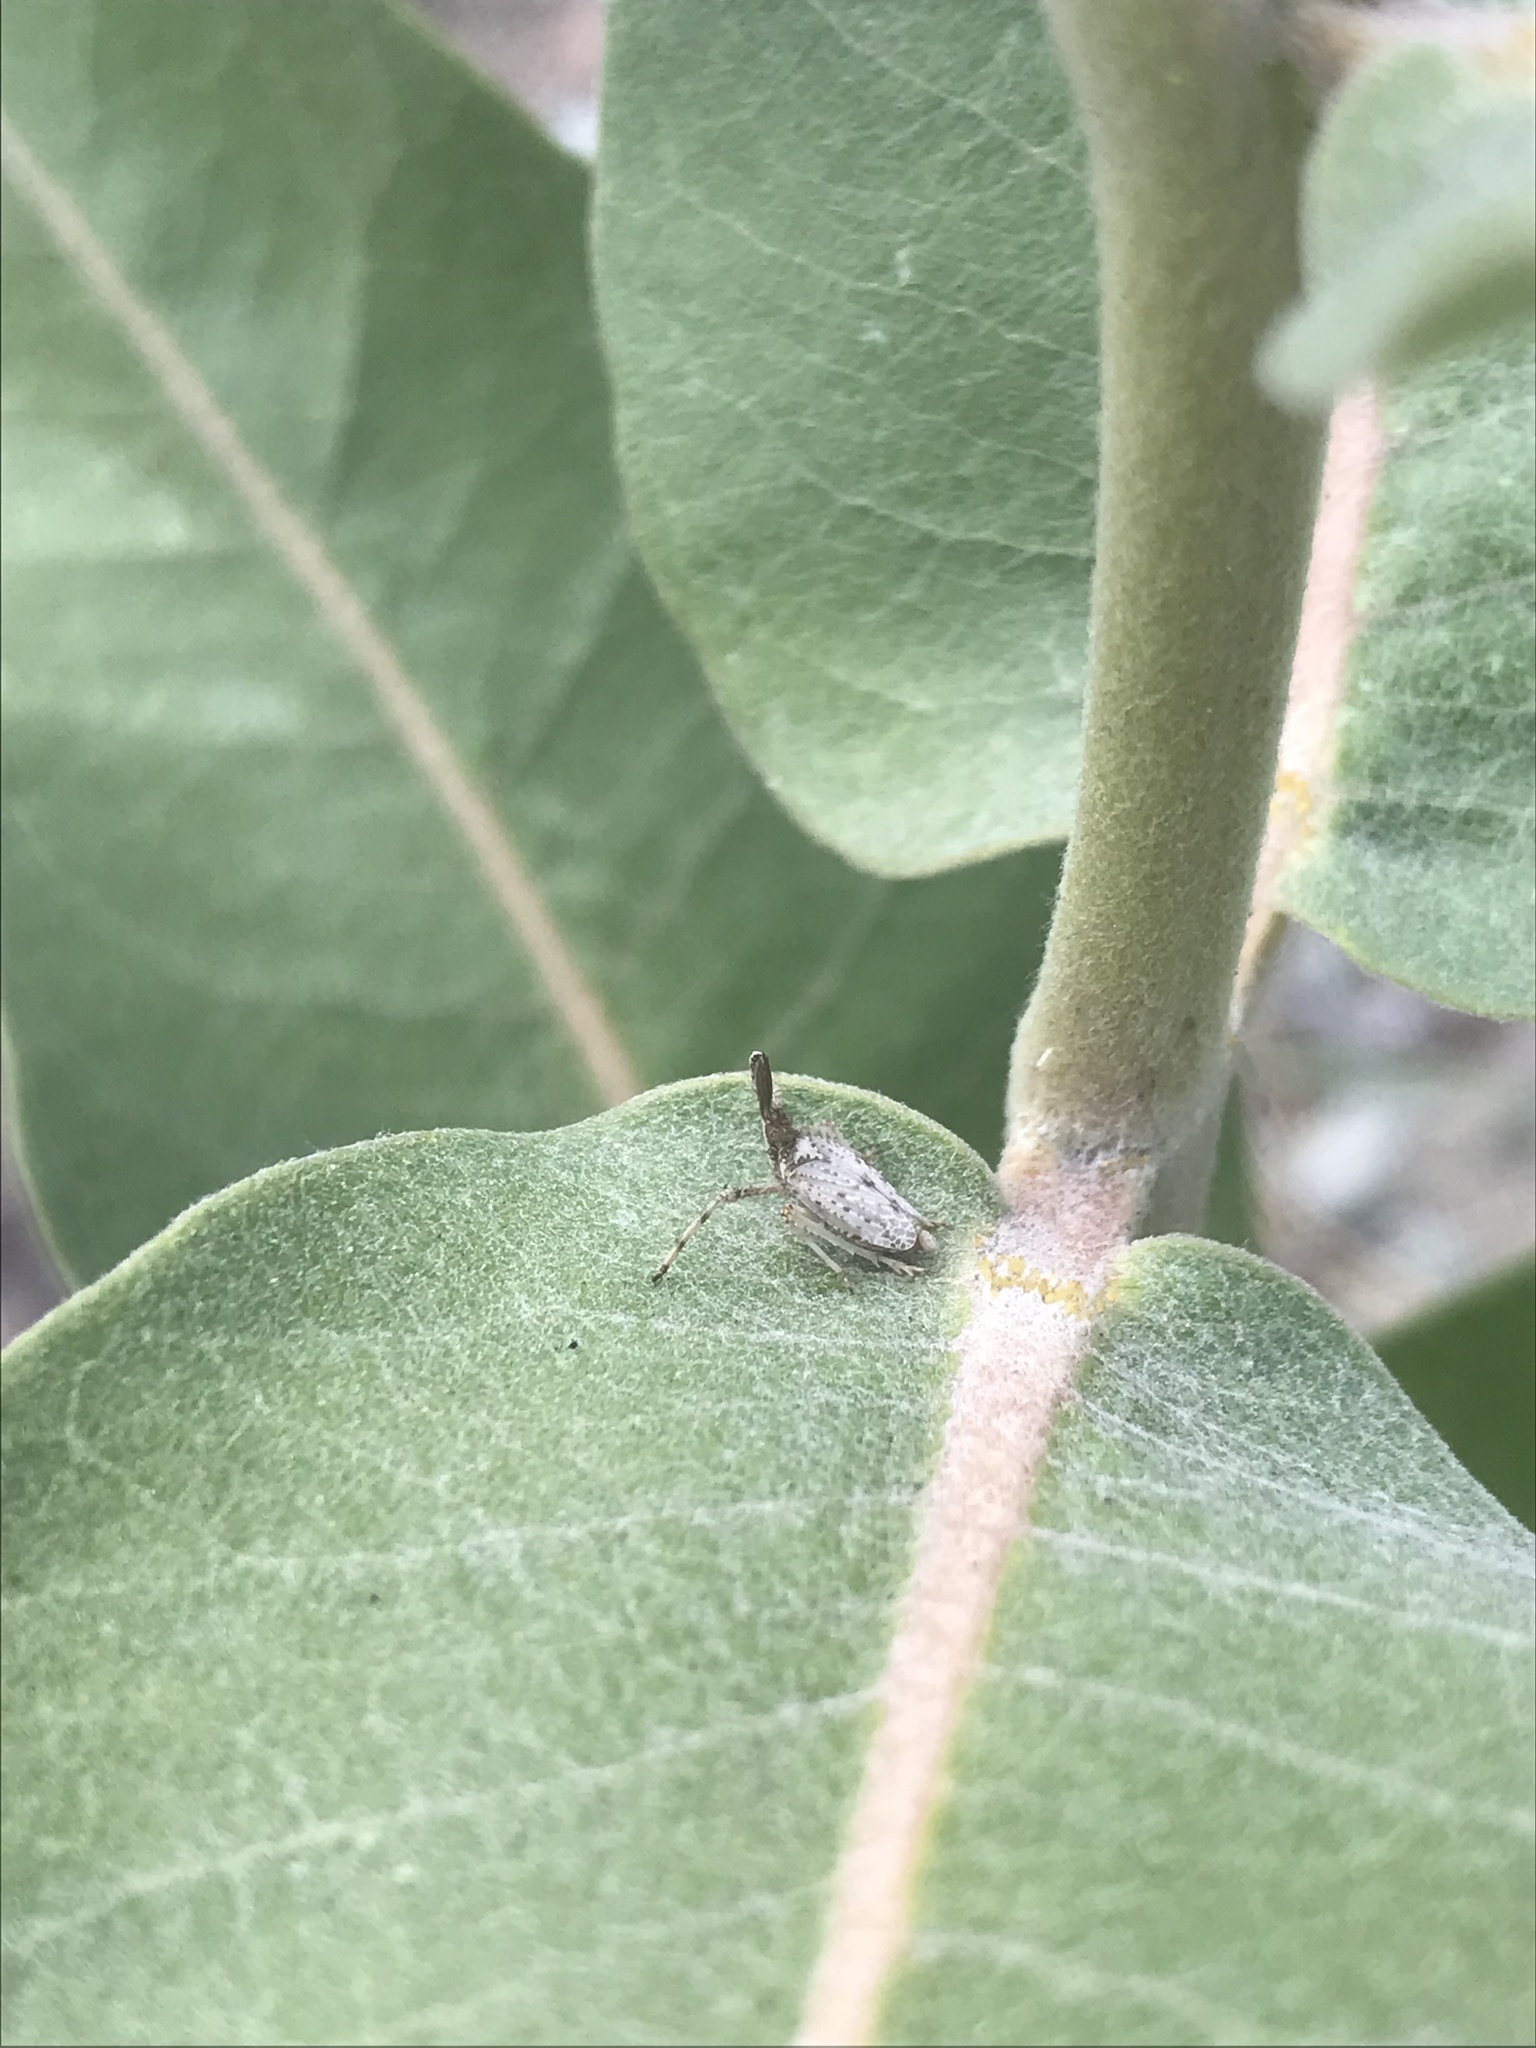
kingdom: Animalia
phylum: Arthropoda
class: Insecta
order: Hemiptera
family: Dictyopharidae
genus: Scolops
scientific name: Scolops abnormis
